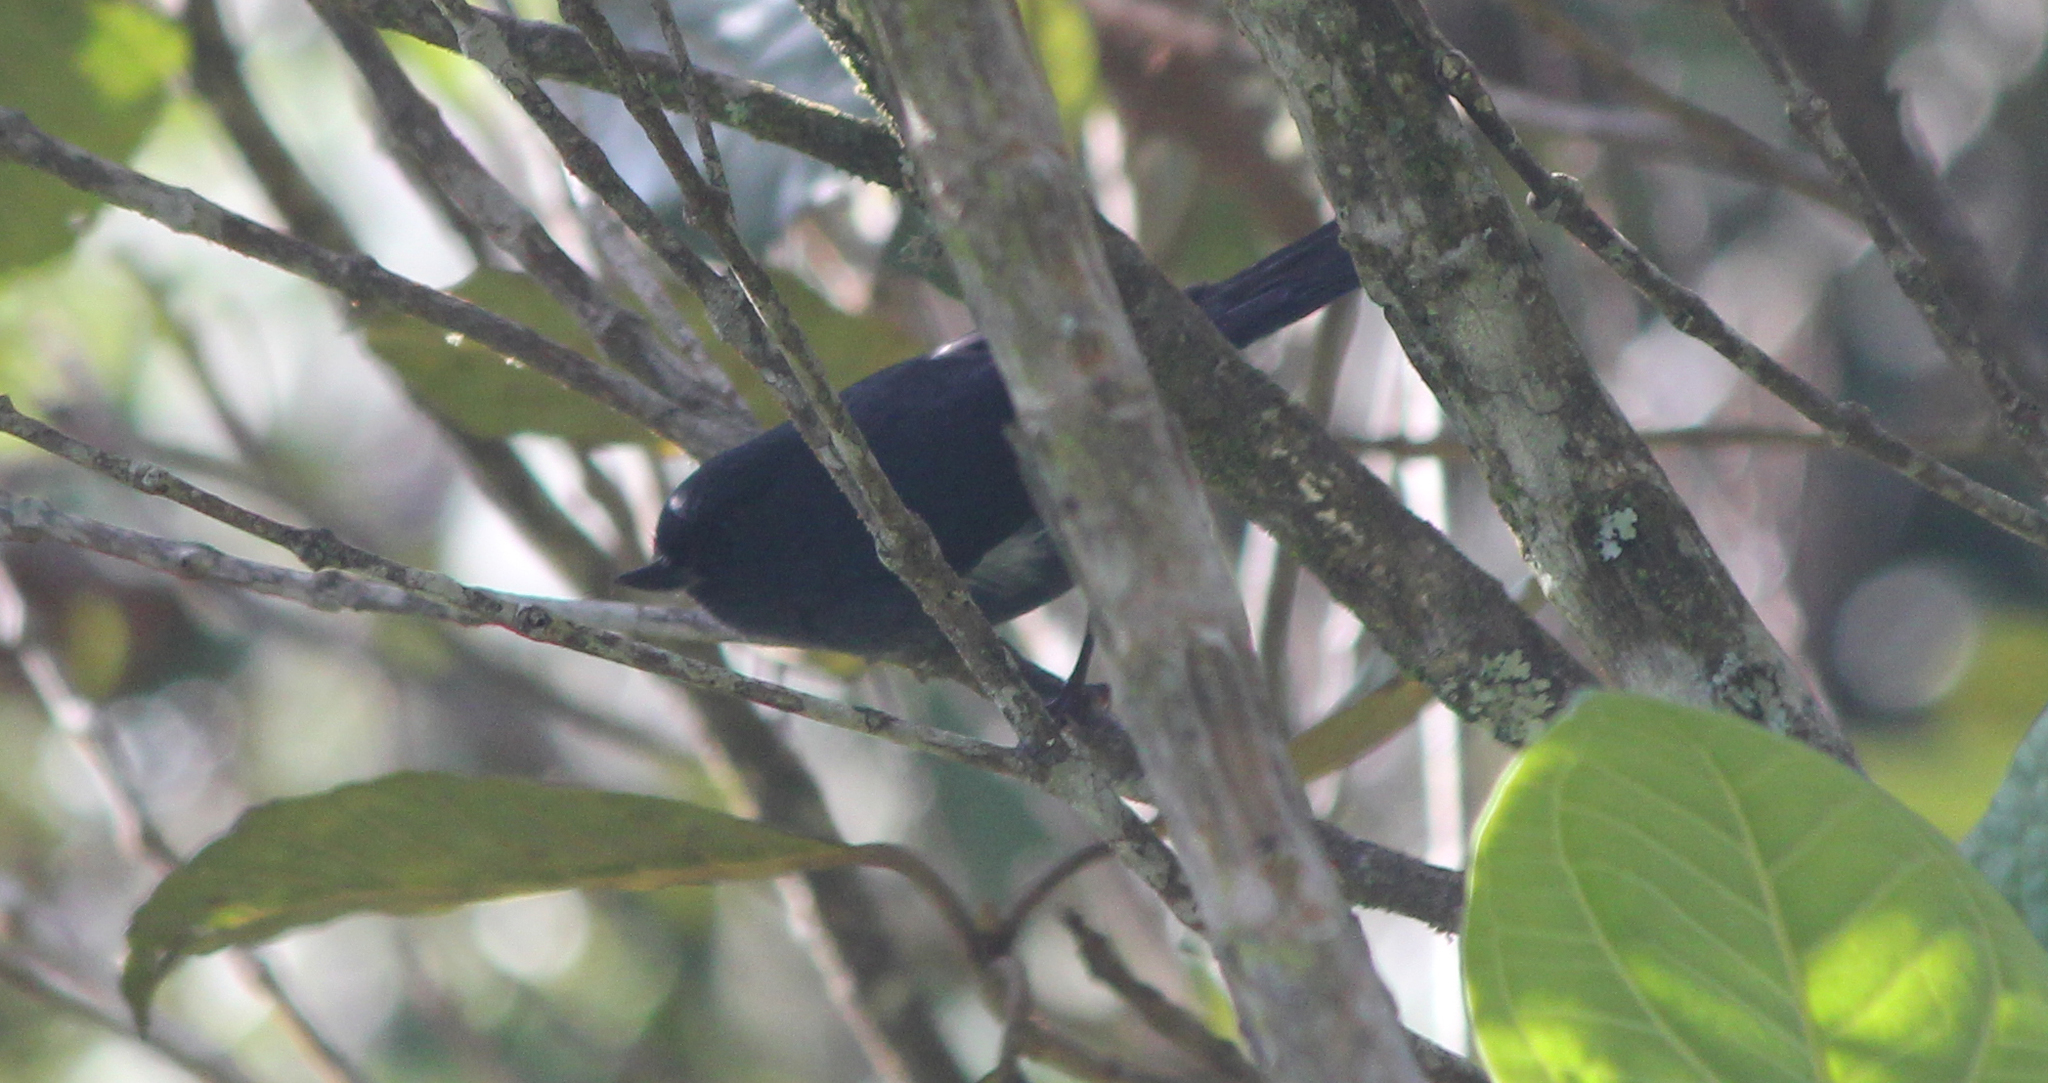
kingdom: Animalia
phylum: Chordata
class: Aves
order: Passeriformes
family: Thraupidae
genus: Diglossa
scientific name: Diglossa albilatera
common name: White-sided flowerpiercer
